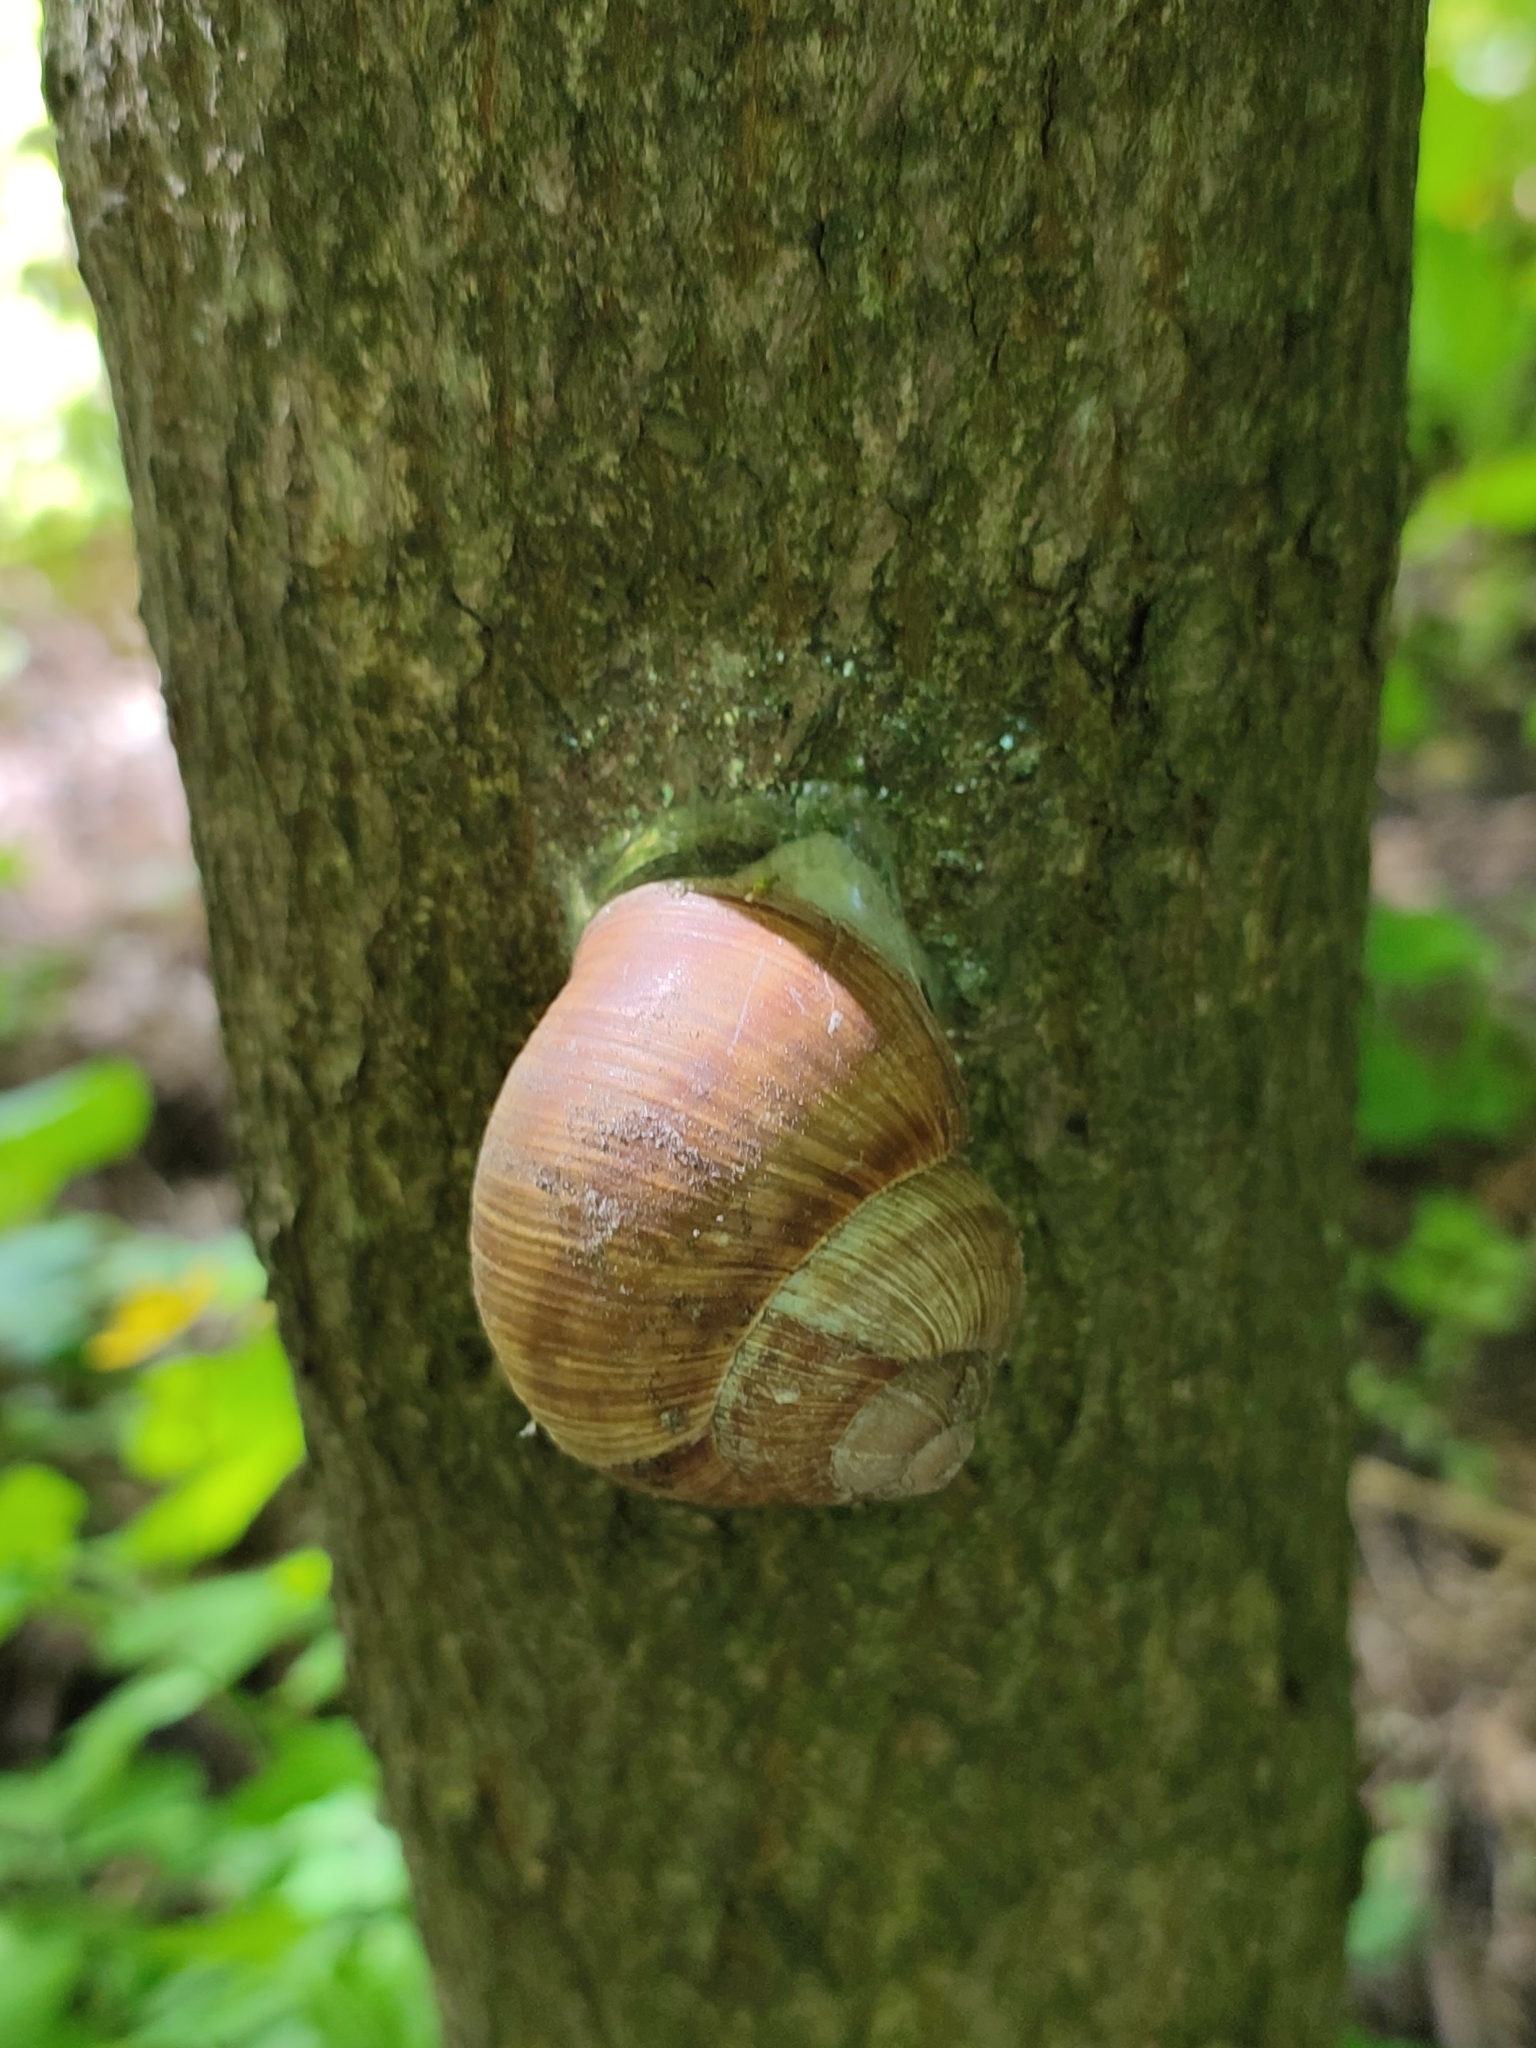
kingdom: Animalia
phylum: Mollusca
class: Gastropoda
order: Stylommatophora
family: Helicidae
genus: Helix
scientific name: Helix pomatia
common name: Roman snail
